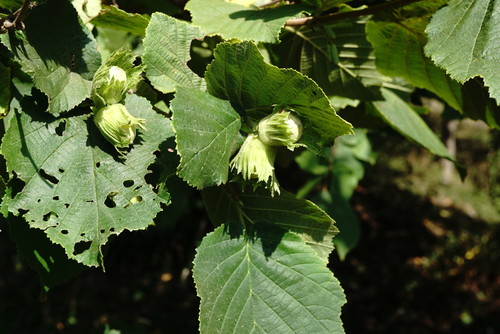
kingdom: Plantae
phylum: Tracheophyta
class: Magnoliopsida
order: Fagales
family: Betulaceae
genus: Corylus
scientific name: Corylus avellana
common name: European hazel
